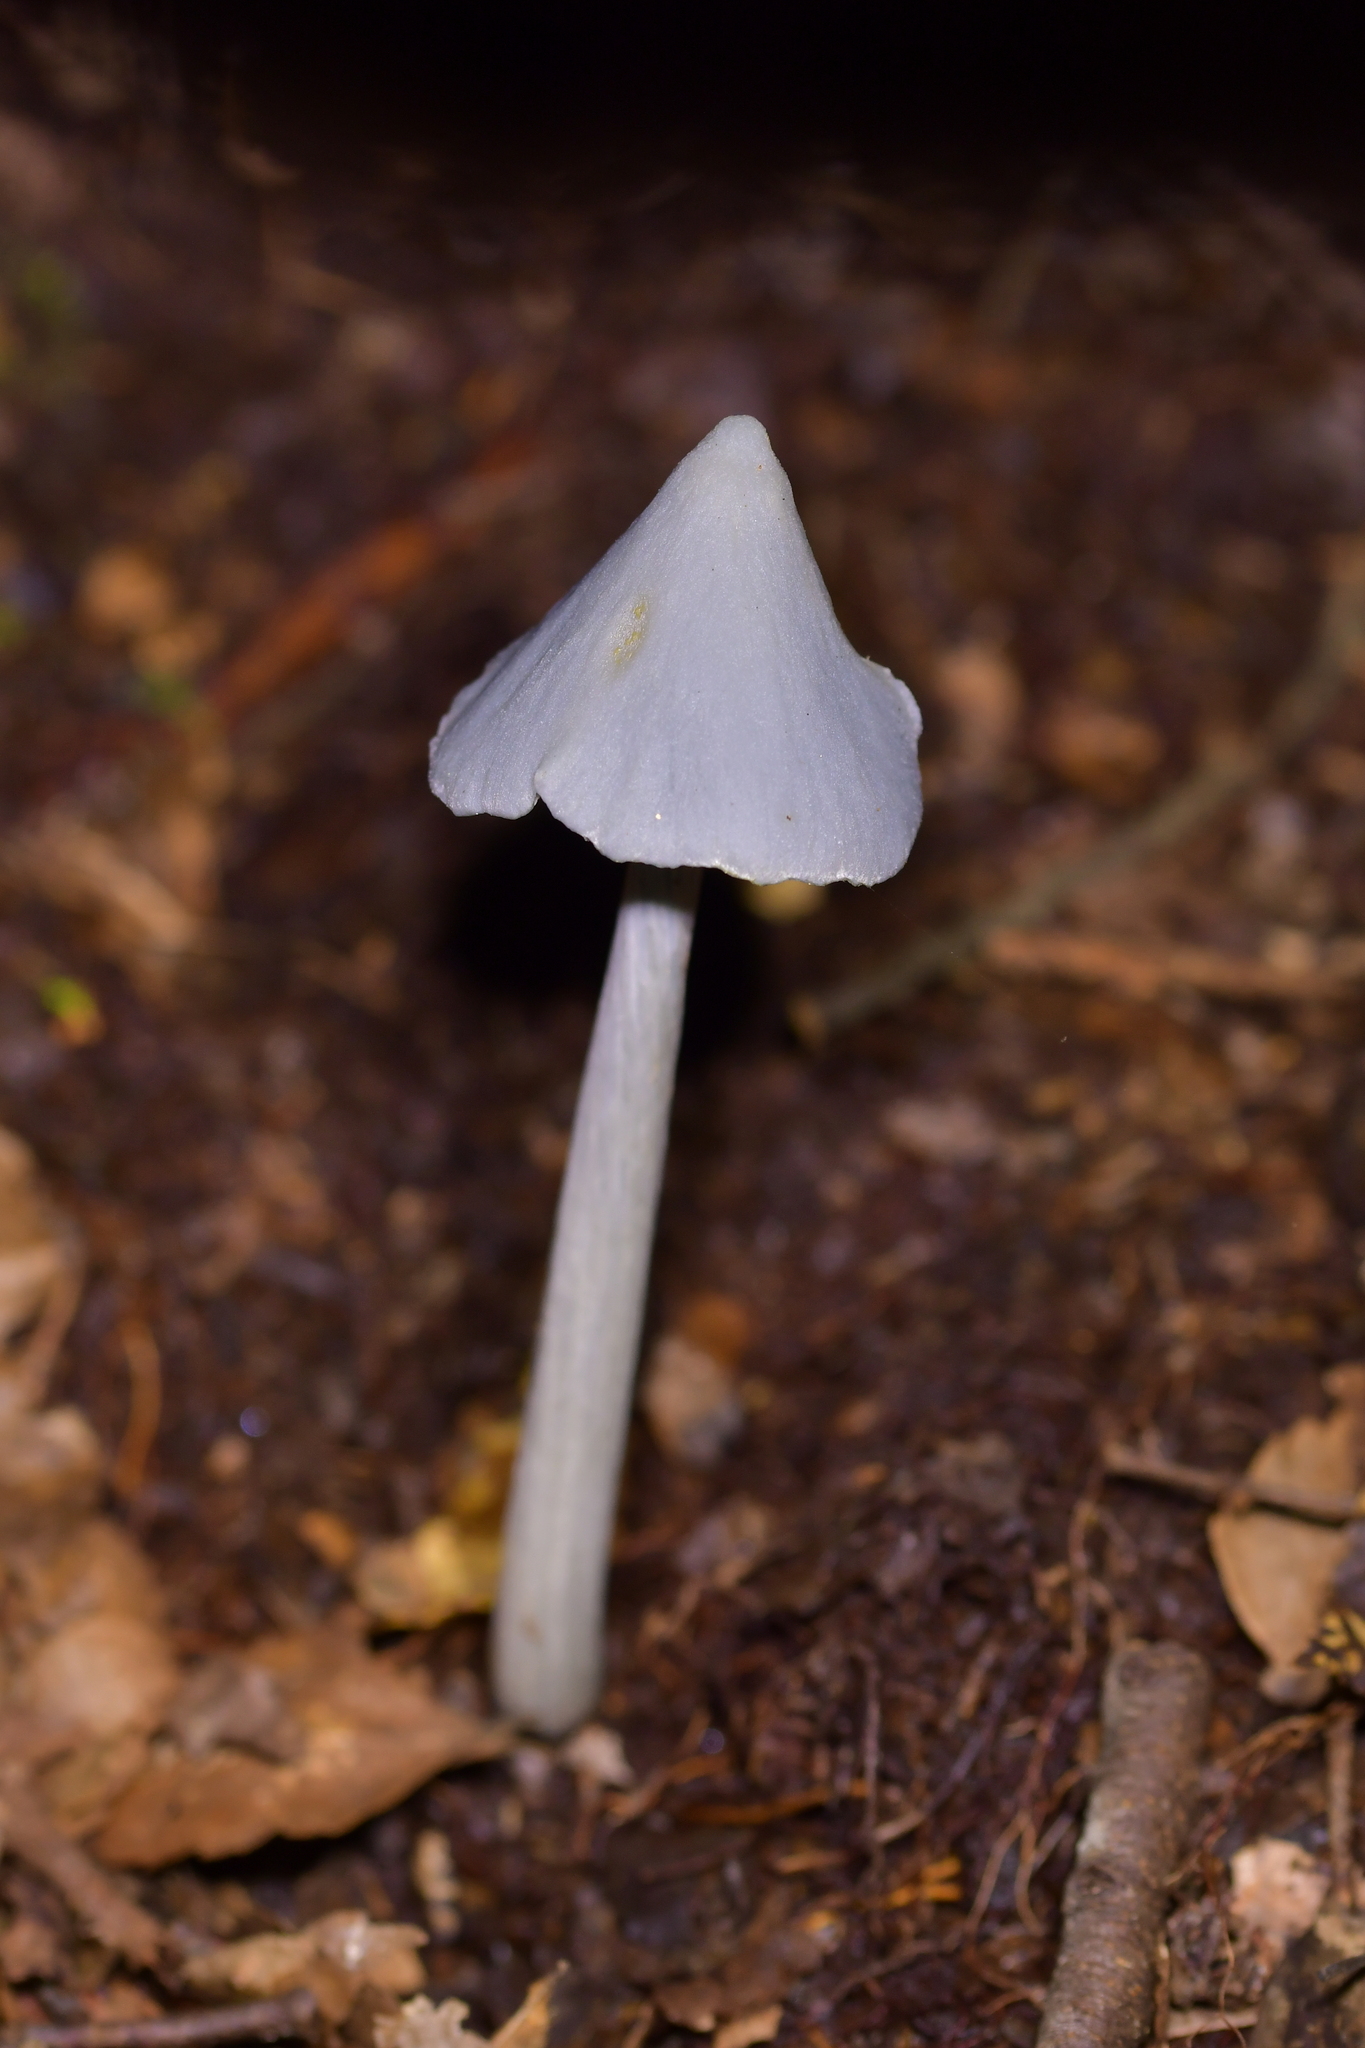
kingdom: Fungi
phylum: Basidiomycota
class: Agaricomycetes
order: Agaricales
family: Entolomataceae
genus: Entoloma
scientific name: Entoloma hochstetteri
